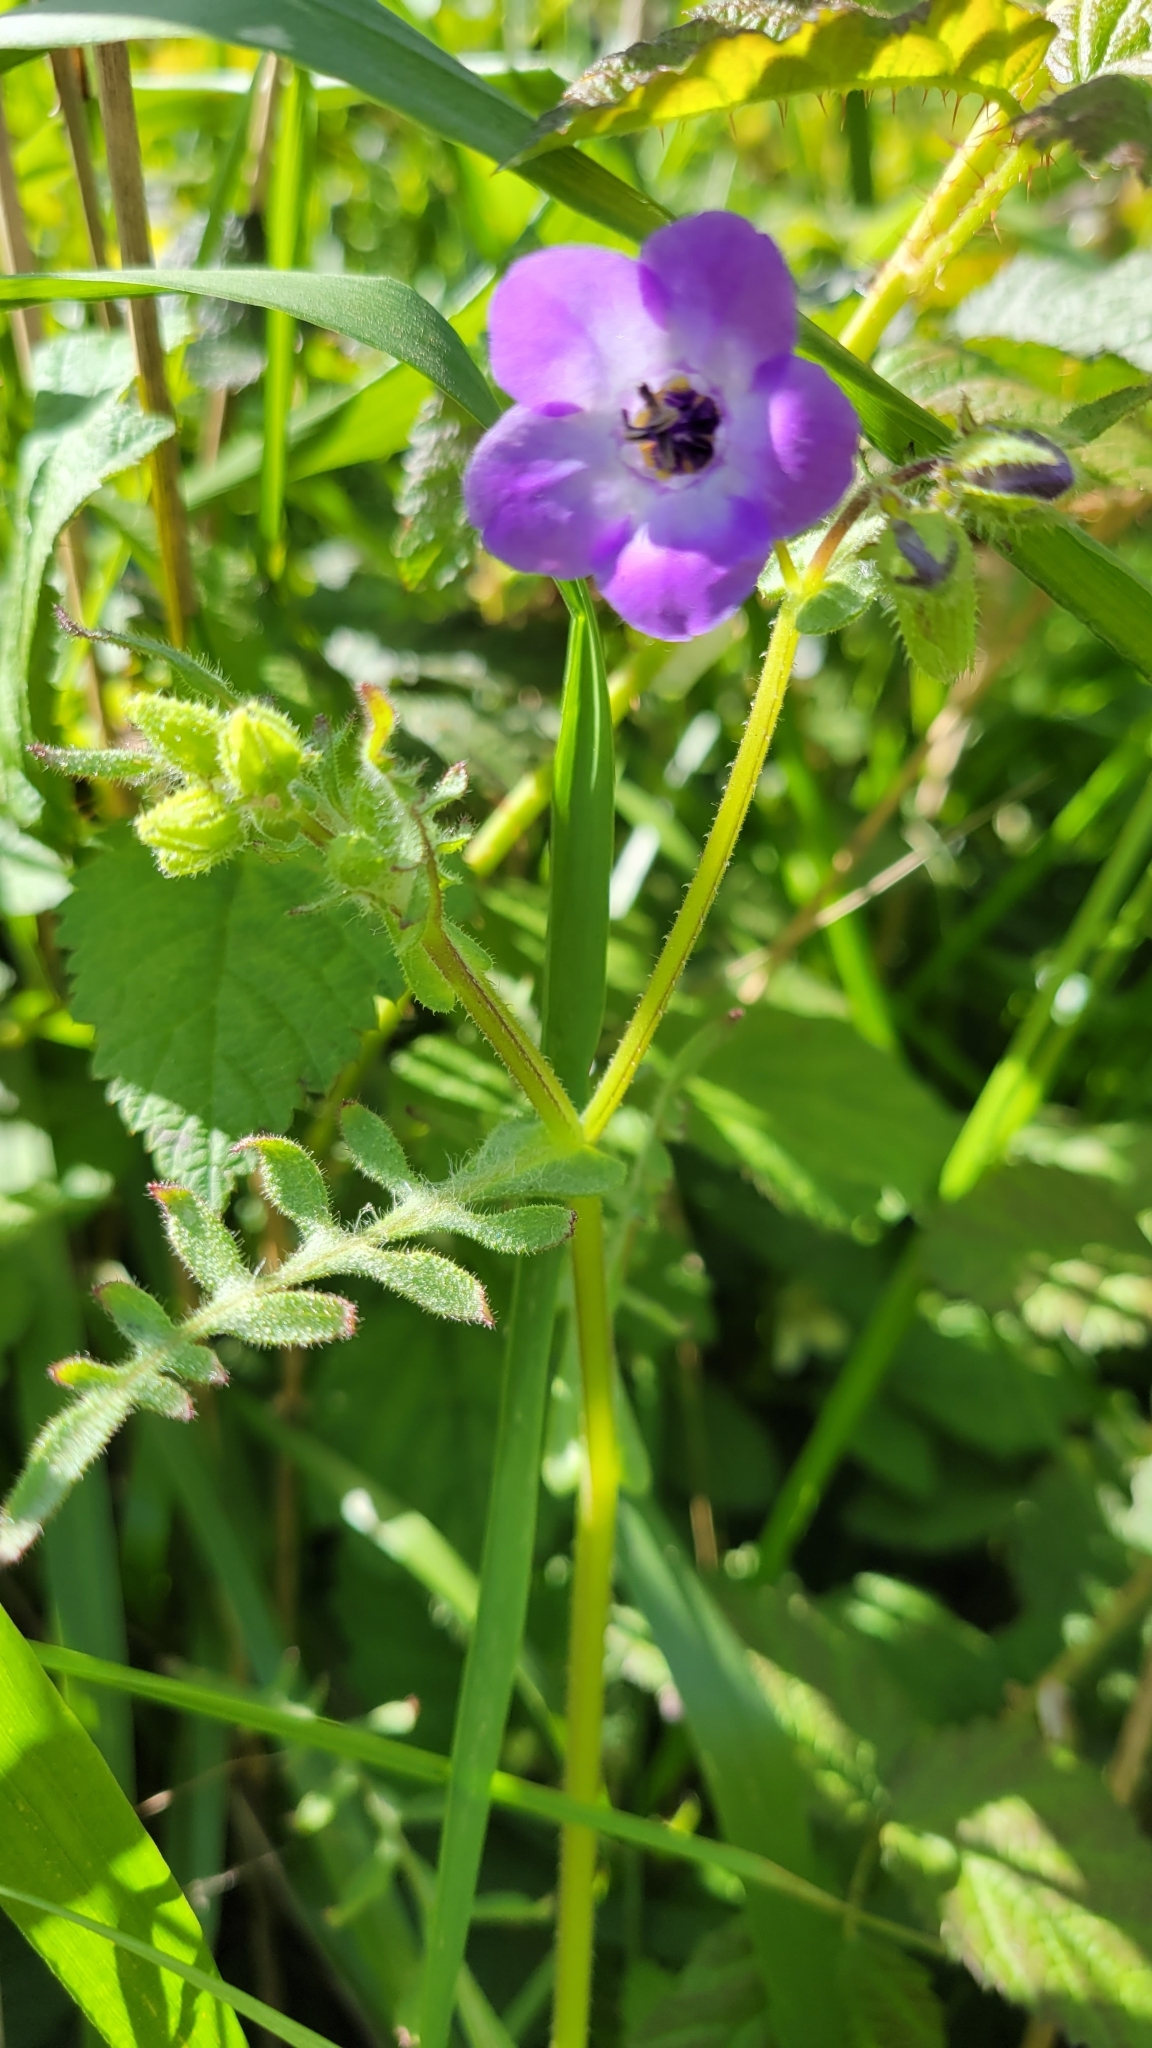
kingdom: Plantae
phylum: Tracheophyta
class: Magnoliopsida
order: Boraginales
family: Hydrophyllaceae
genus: Pholistoma
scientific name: Pholistoma auritum
